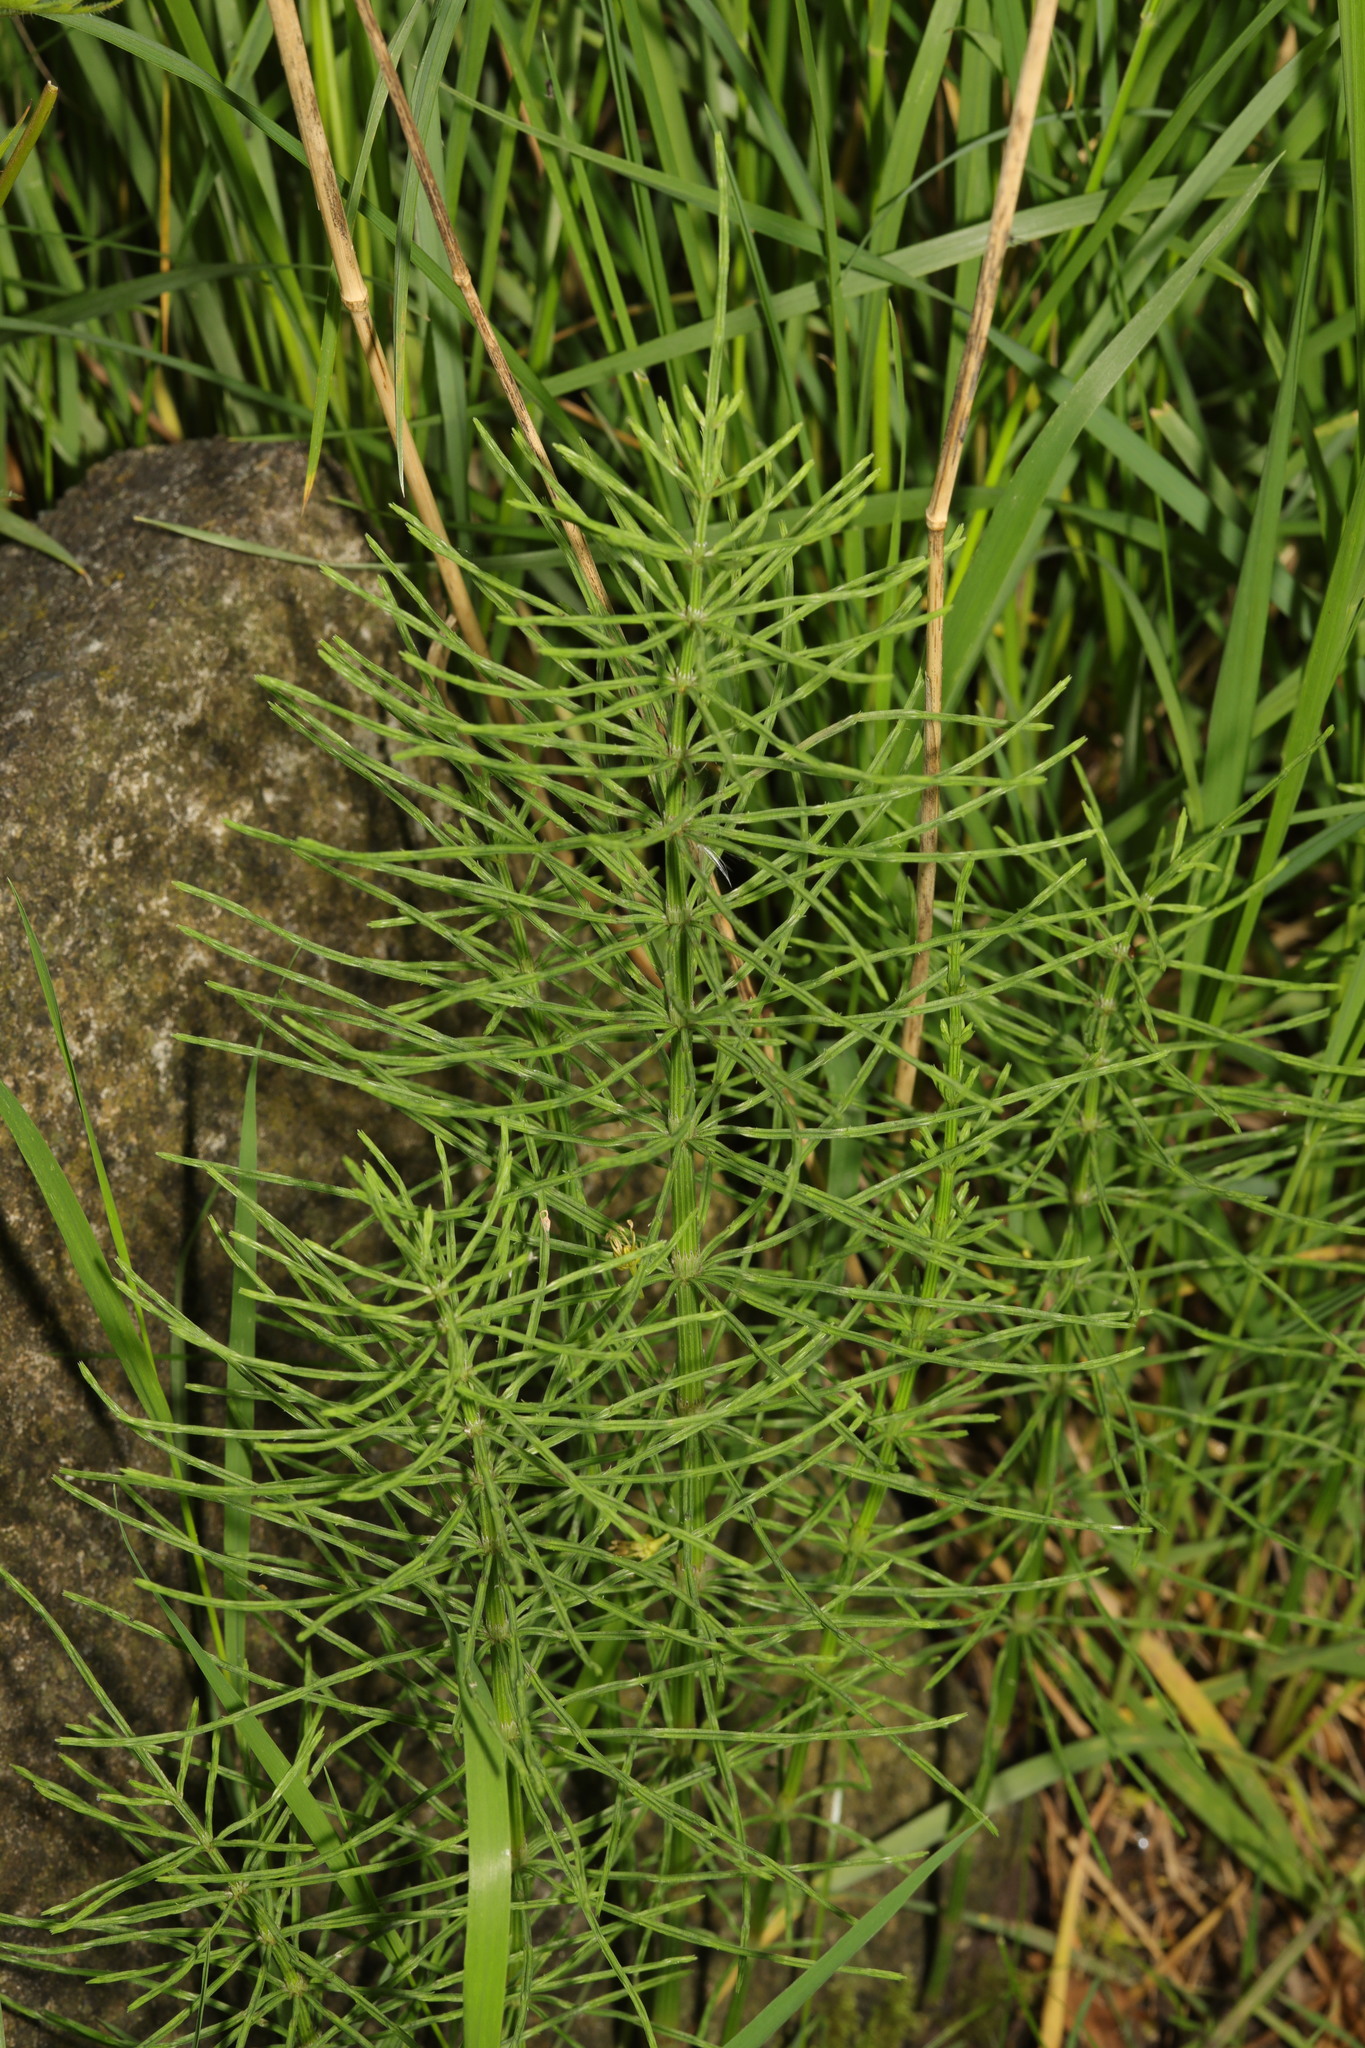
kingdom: Plantae
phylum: Tracheophyta
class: Polypodiopsida
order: Equisetales
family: Equisetaceae
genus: Equisetum
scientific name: Equisetum arvense
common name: Field horsetail
